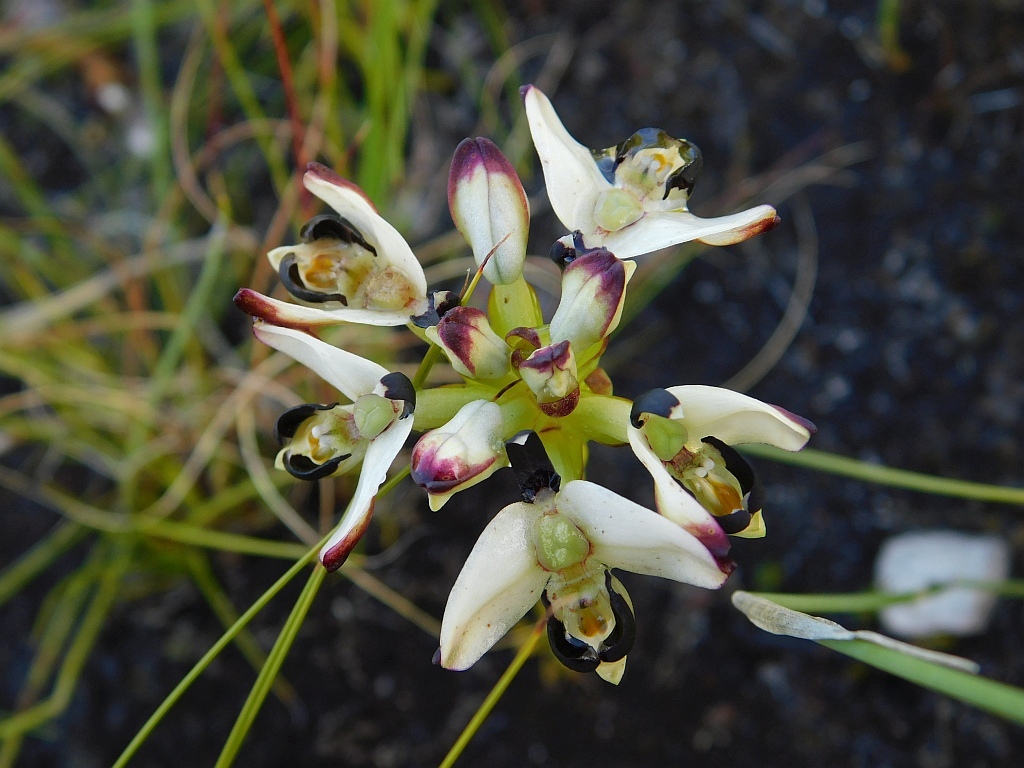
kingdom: Plantae
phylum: Tracheophyta
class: Liliopsida
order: Asparagales
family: Orchidaceae
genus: Disa
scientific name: Disa bivalvata
